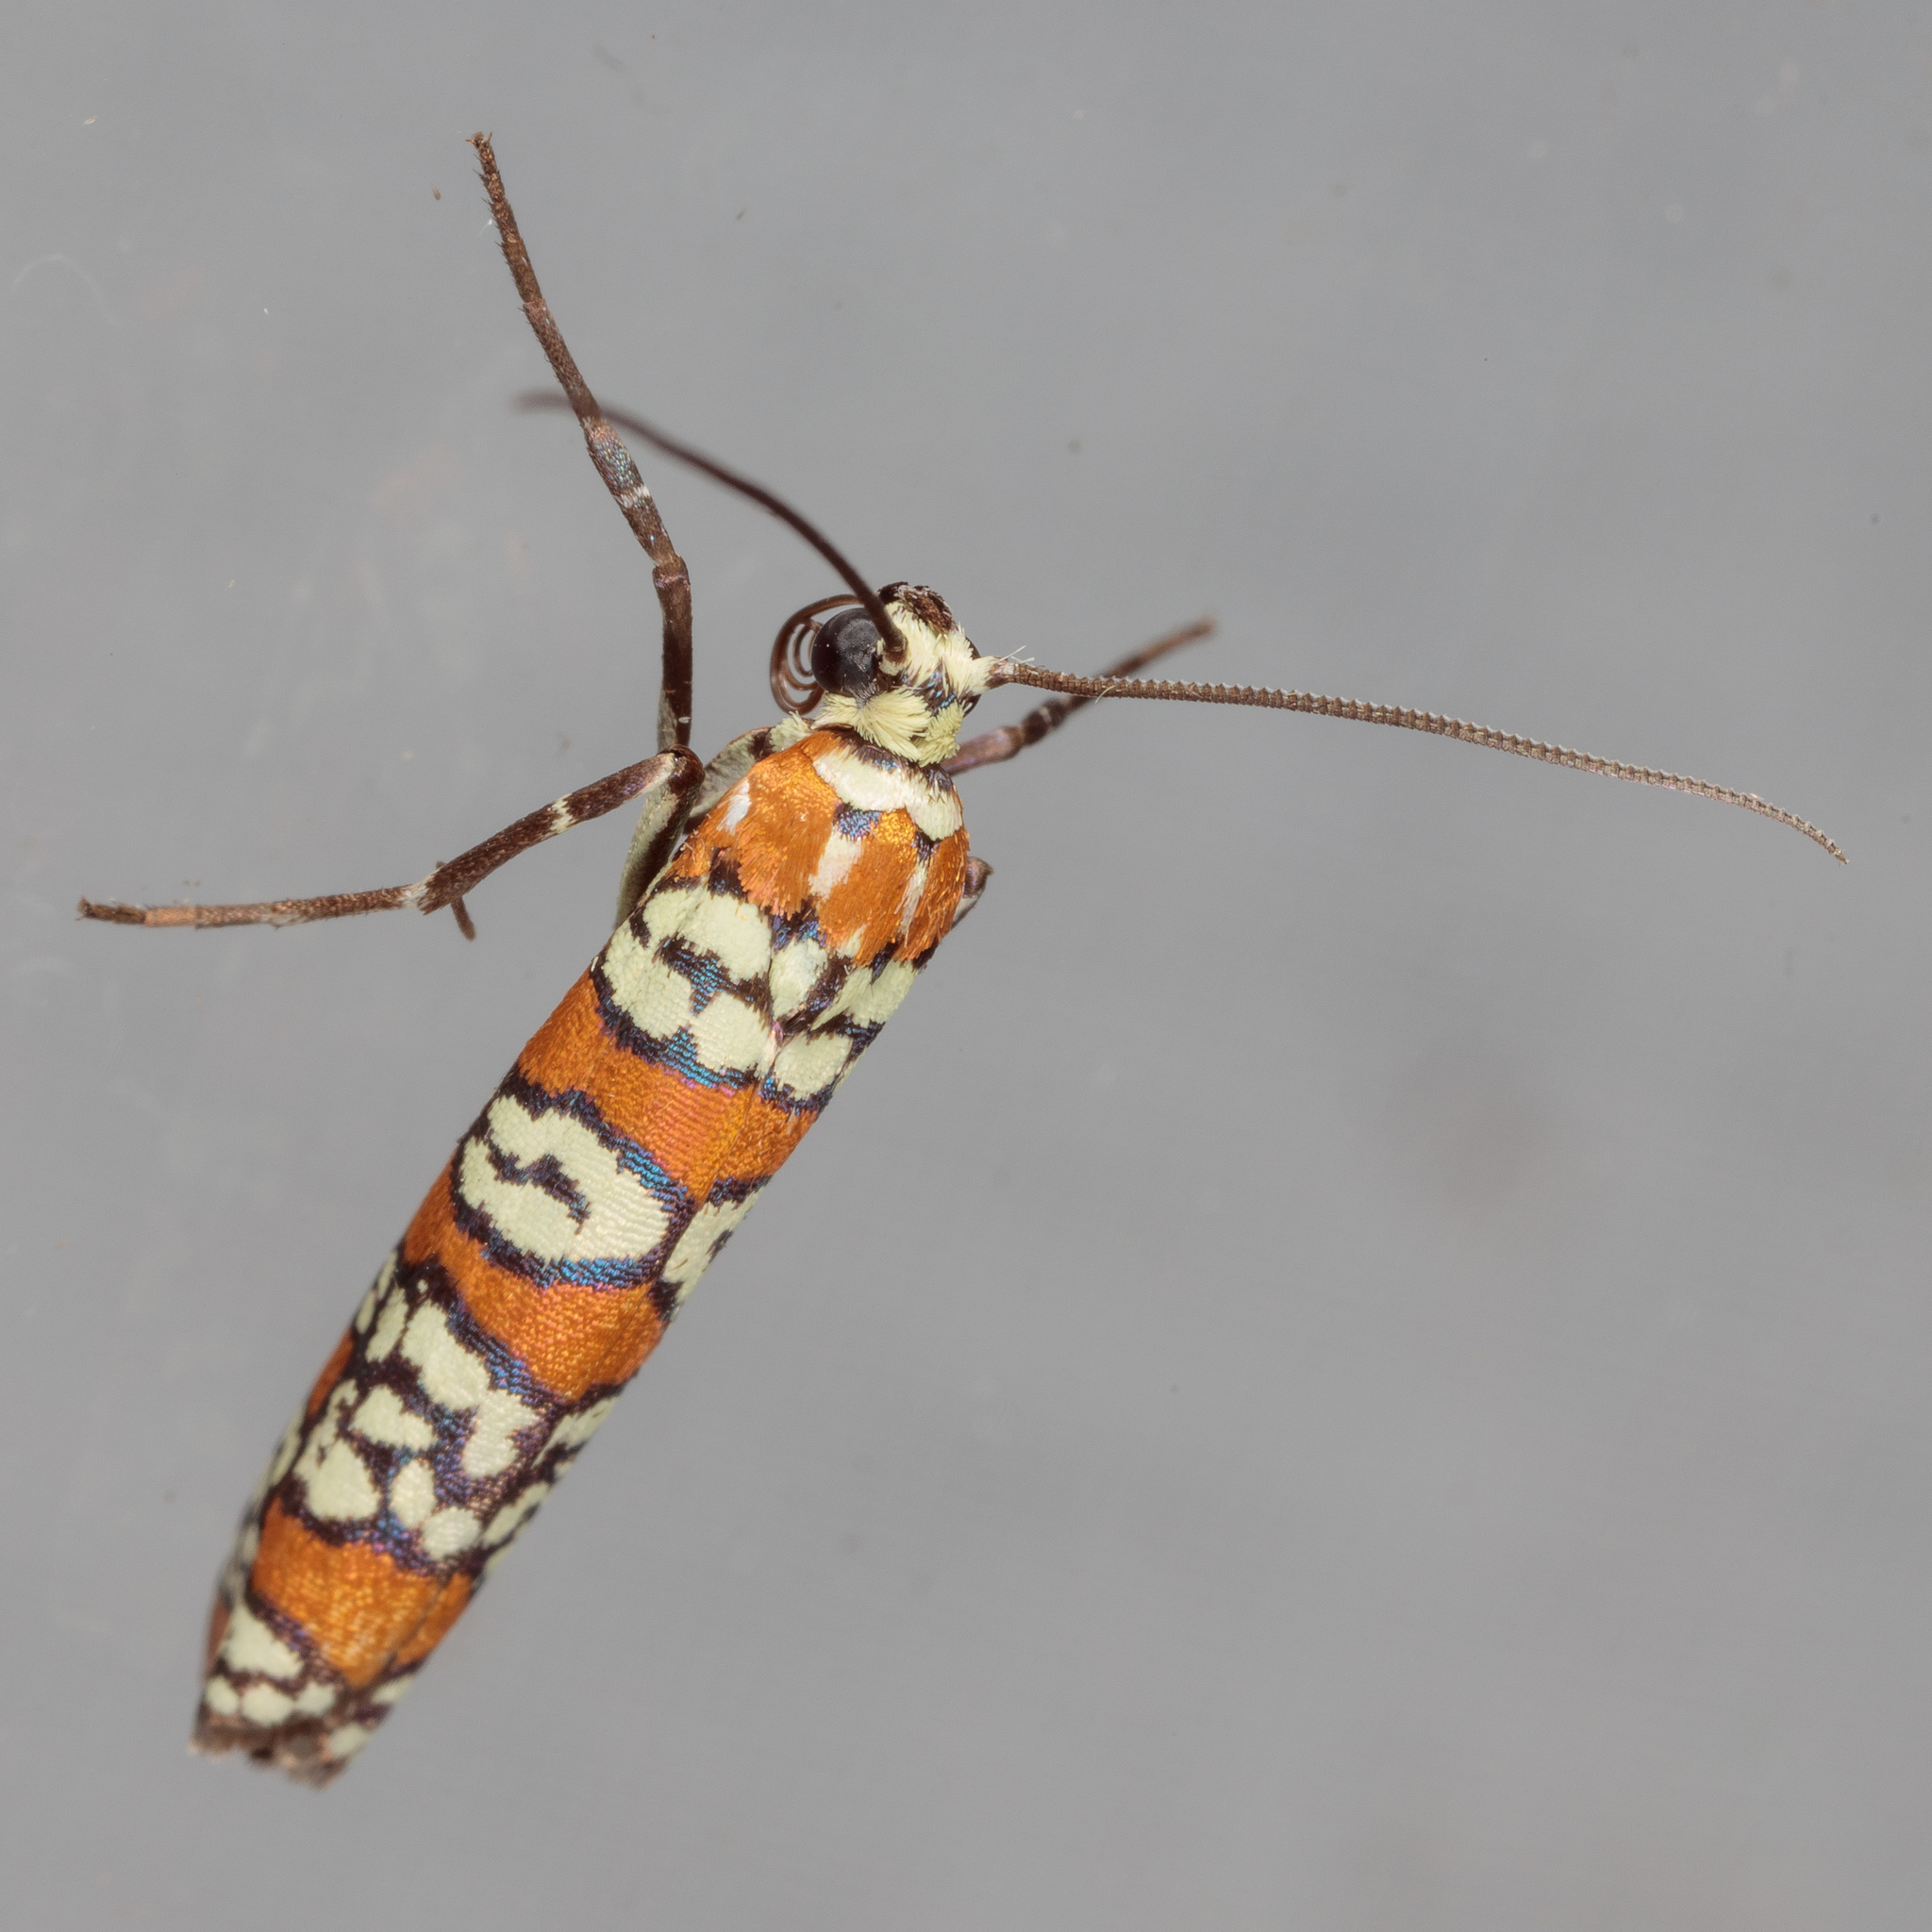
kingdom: Animalia
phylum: Arthropoda
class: Insecta
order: Lepidoptera
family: Attevidae
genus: Atteva
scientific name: Atteva punctella
